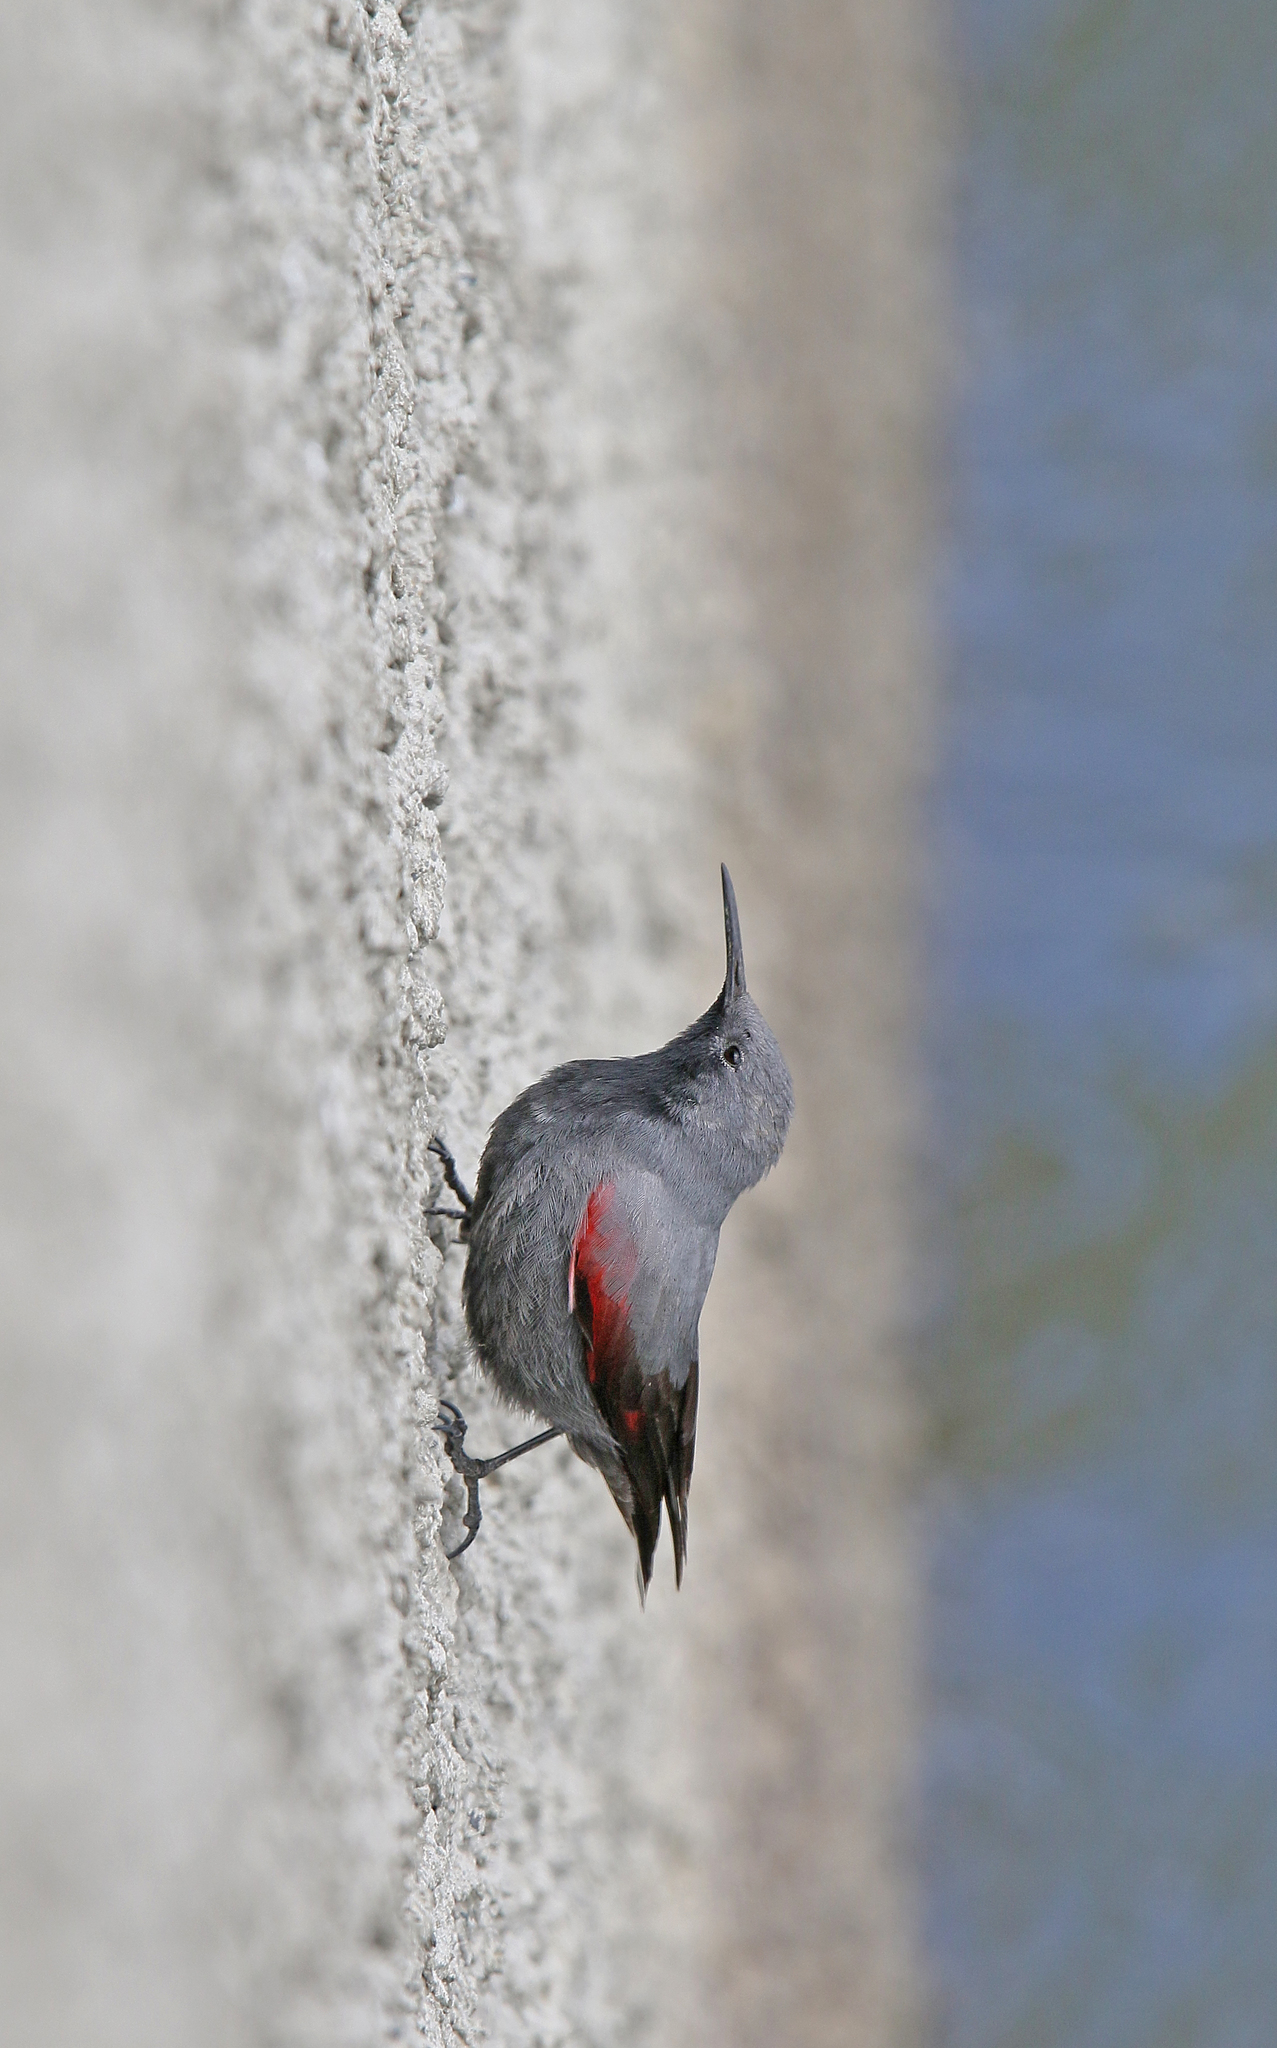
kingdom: Animalia
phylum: Chordata
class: Aves
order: Passeriformes
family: Tichodromidae
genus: Tichodroma
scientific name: Tichodroma muraria
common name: Wallcreeper
